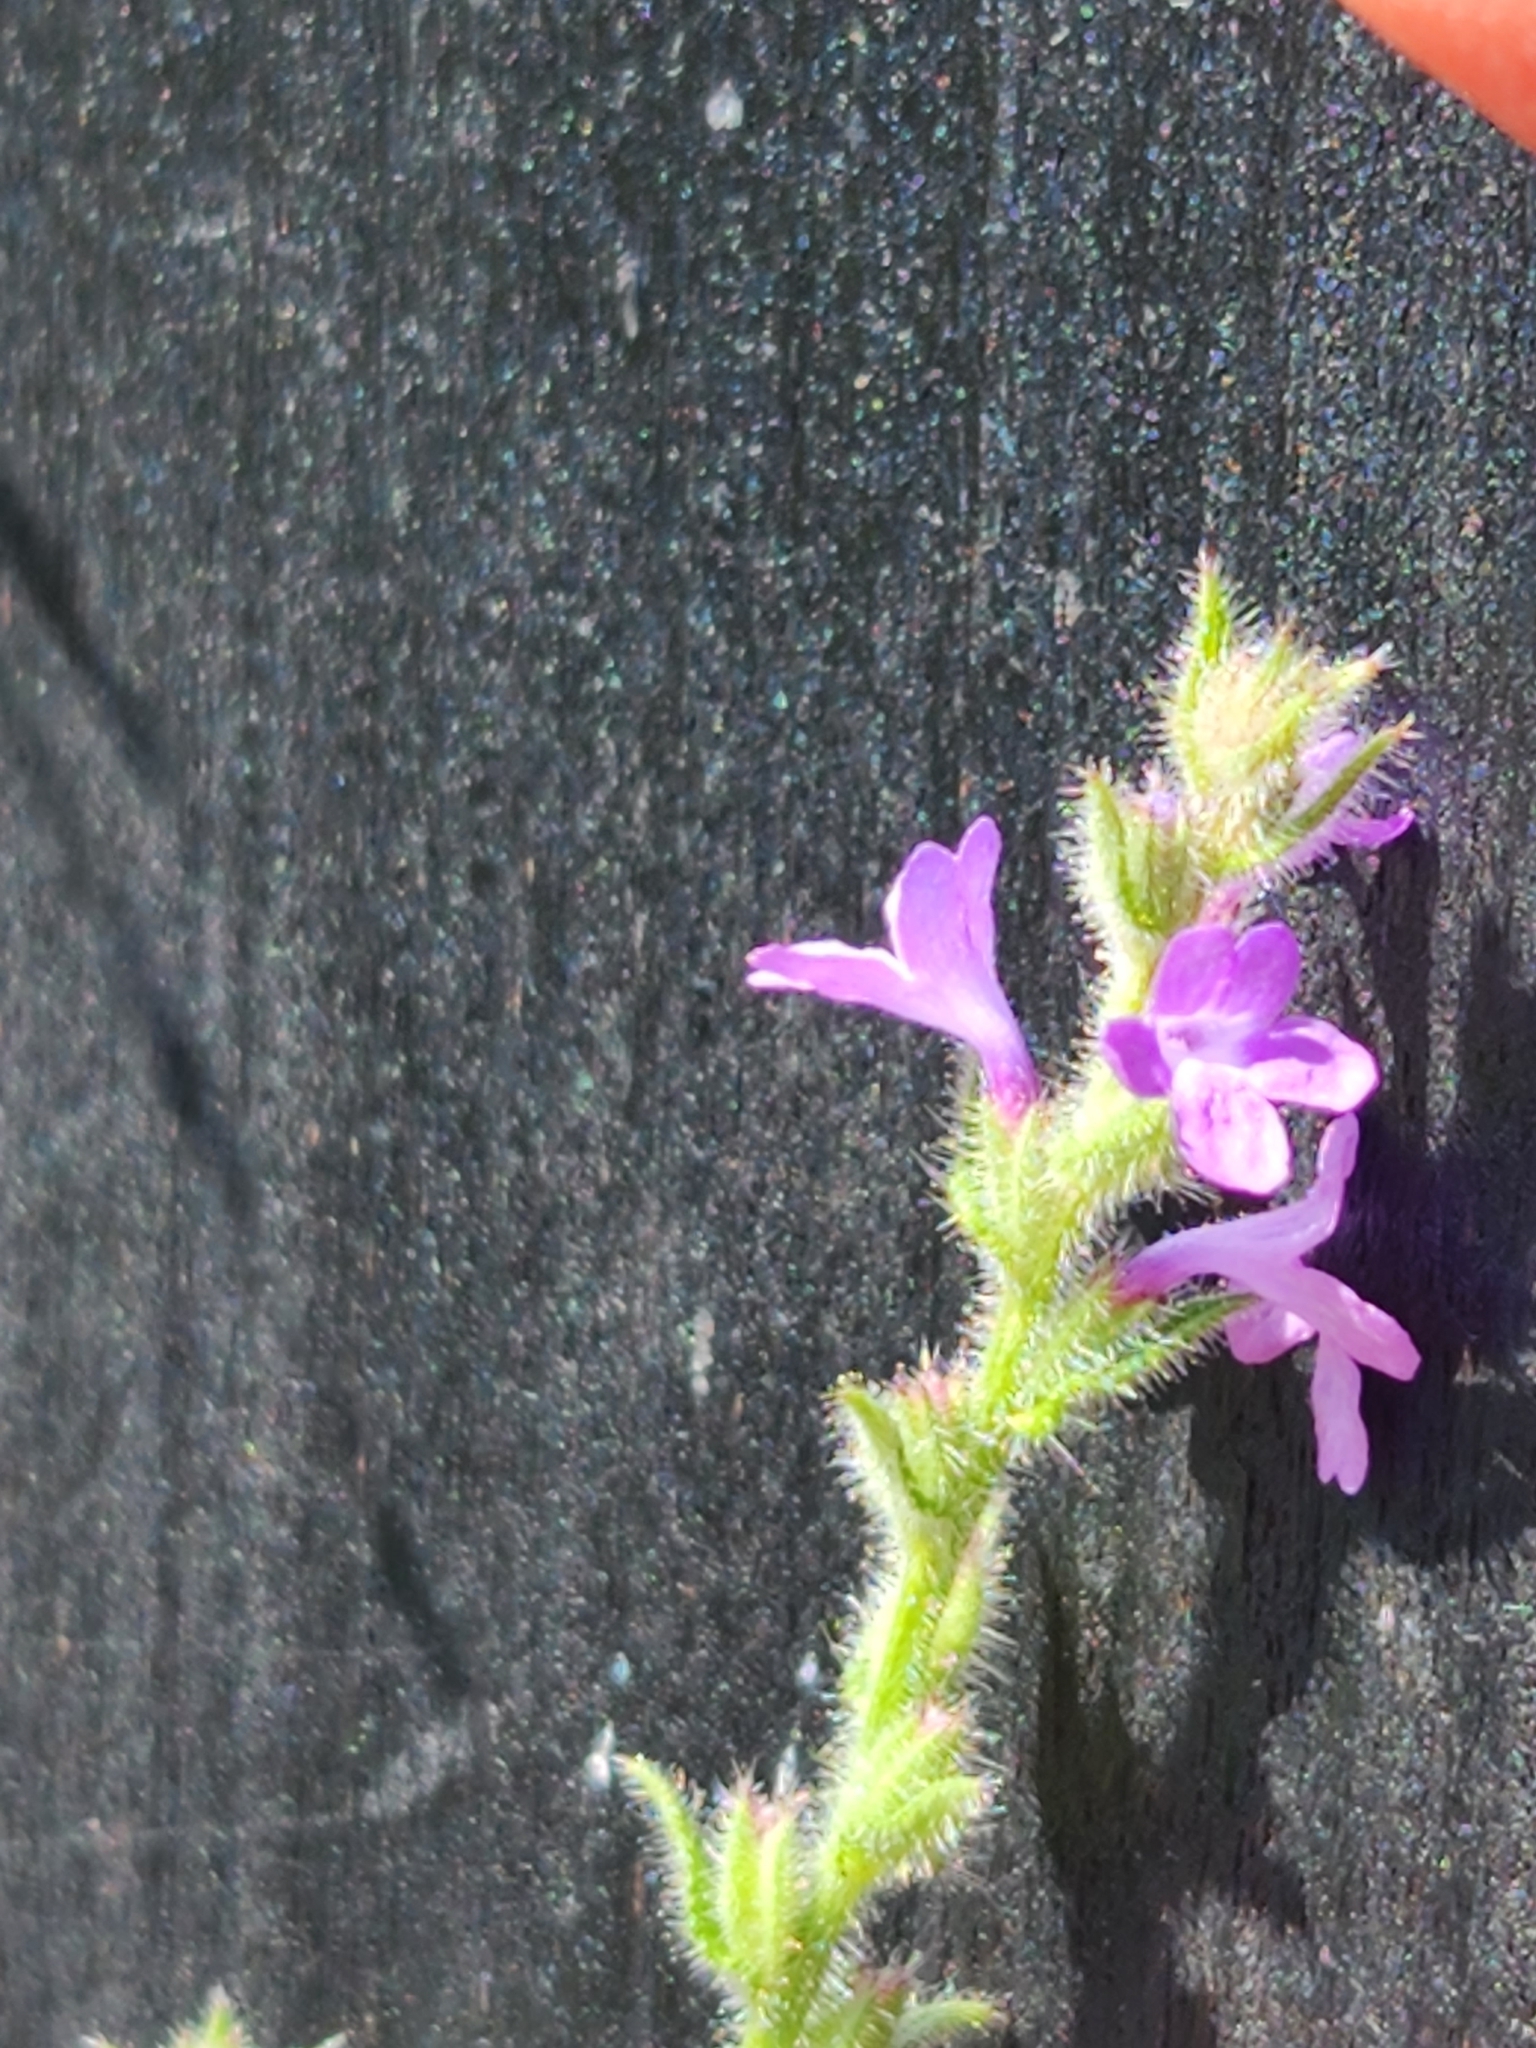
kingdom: Plantae
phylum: Tracheophyta
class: Magnoliopsida
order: Lamiales
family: Verbenaceae
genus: Verbena
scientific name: Verbena canescens
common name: Gray vervain
